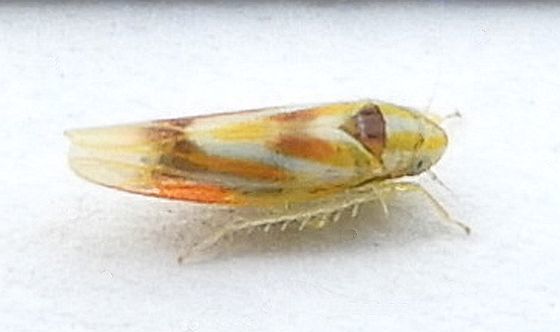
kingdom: Animalia
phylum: Arthropoda
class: Insecta
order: Hemiptera
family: Cicadellidae
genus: Erythridula
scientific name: Erythridula praecisa
